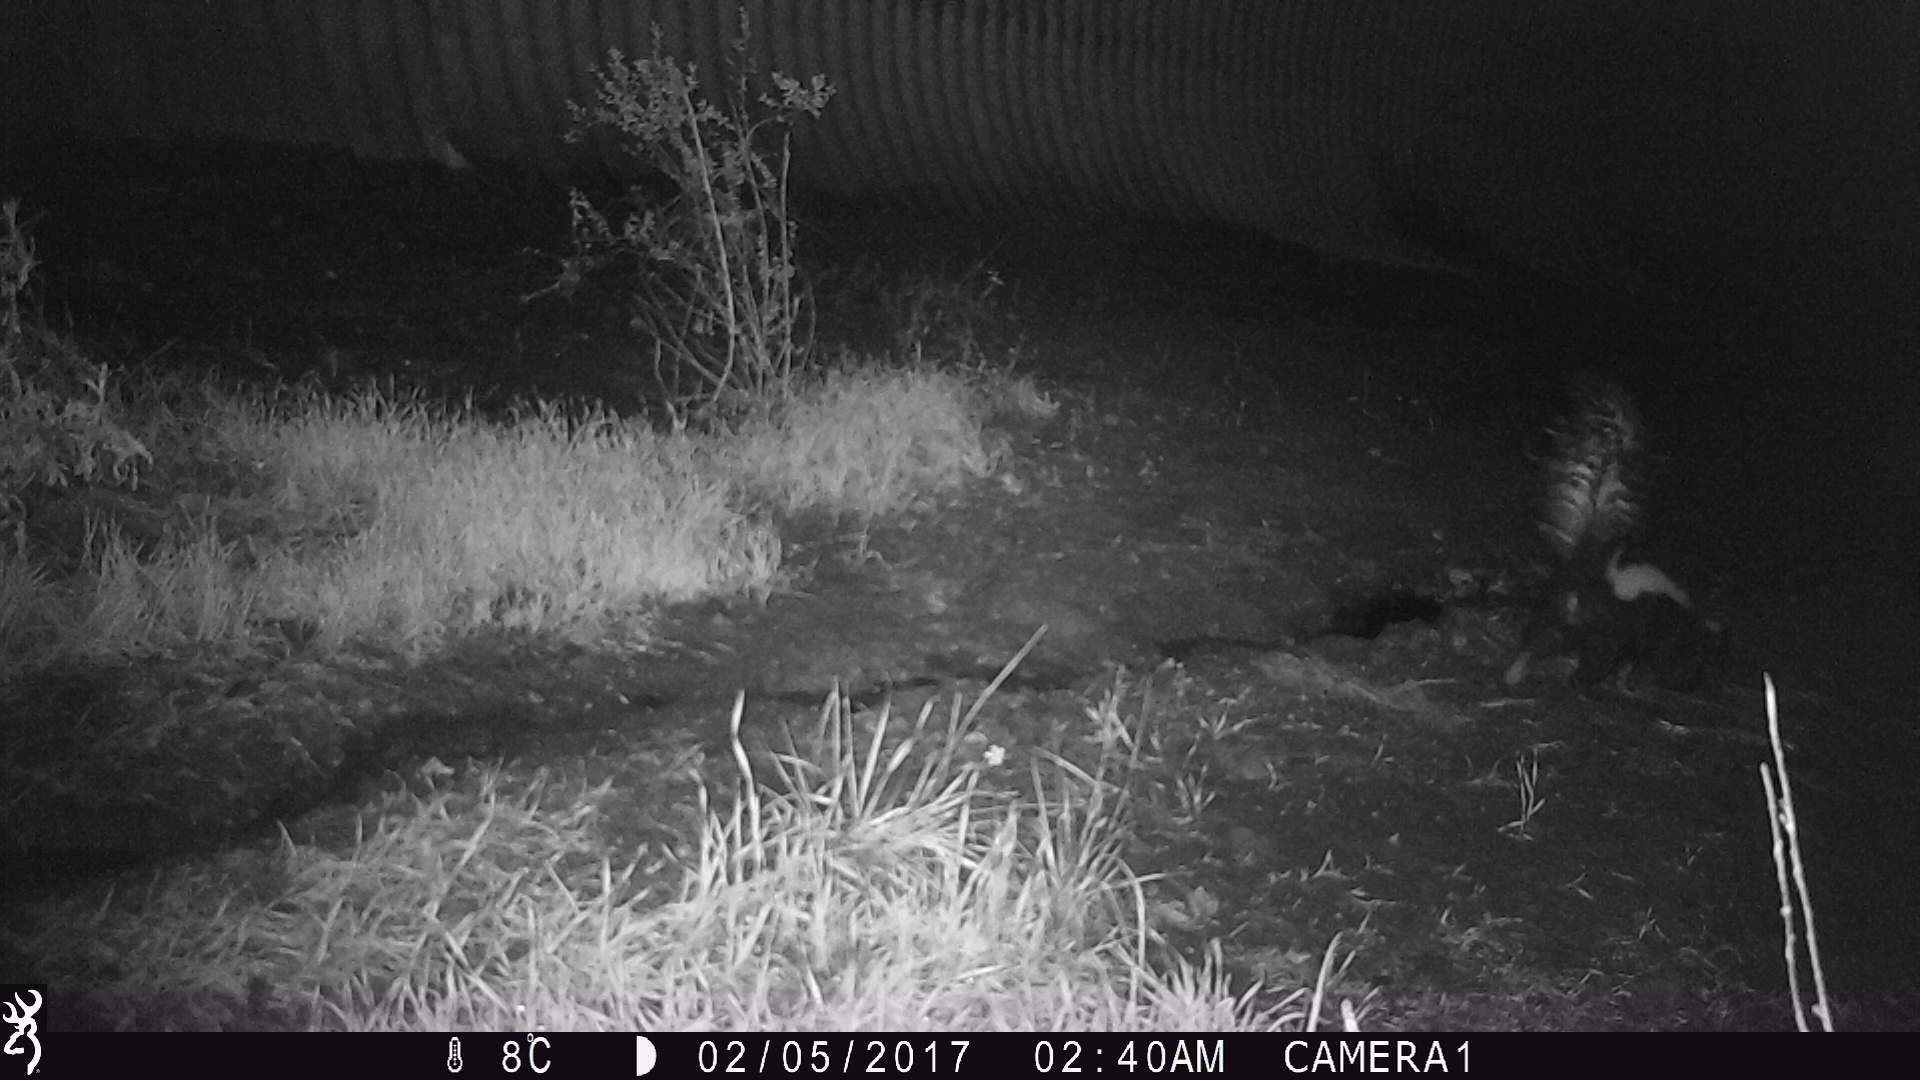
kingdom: Animalia
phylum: Chordata
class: Mammalia
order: Carnivora
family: Mephitidae
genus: Mephitis
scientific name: Mephitis mephitis
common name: Striped skunk
